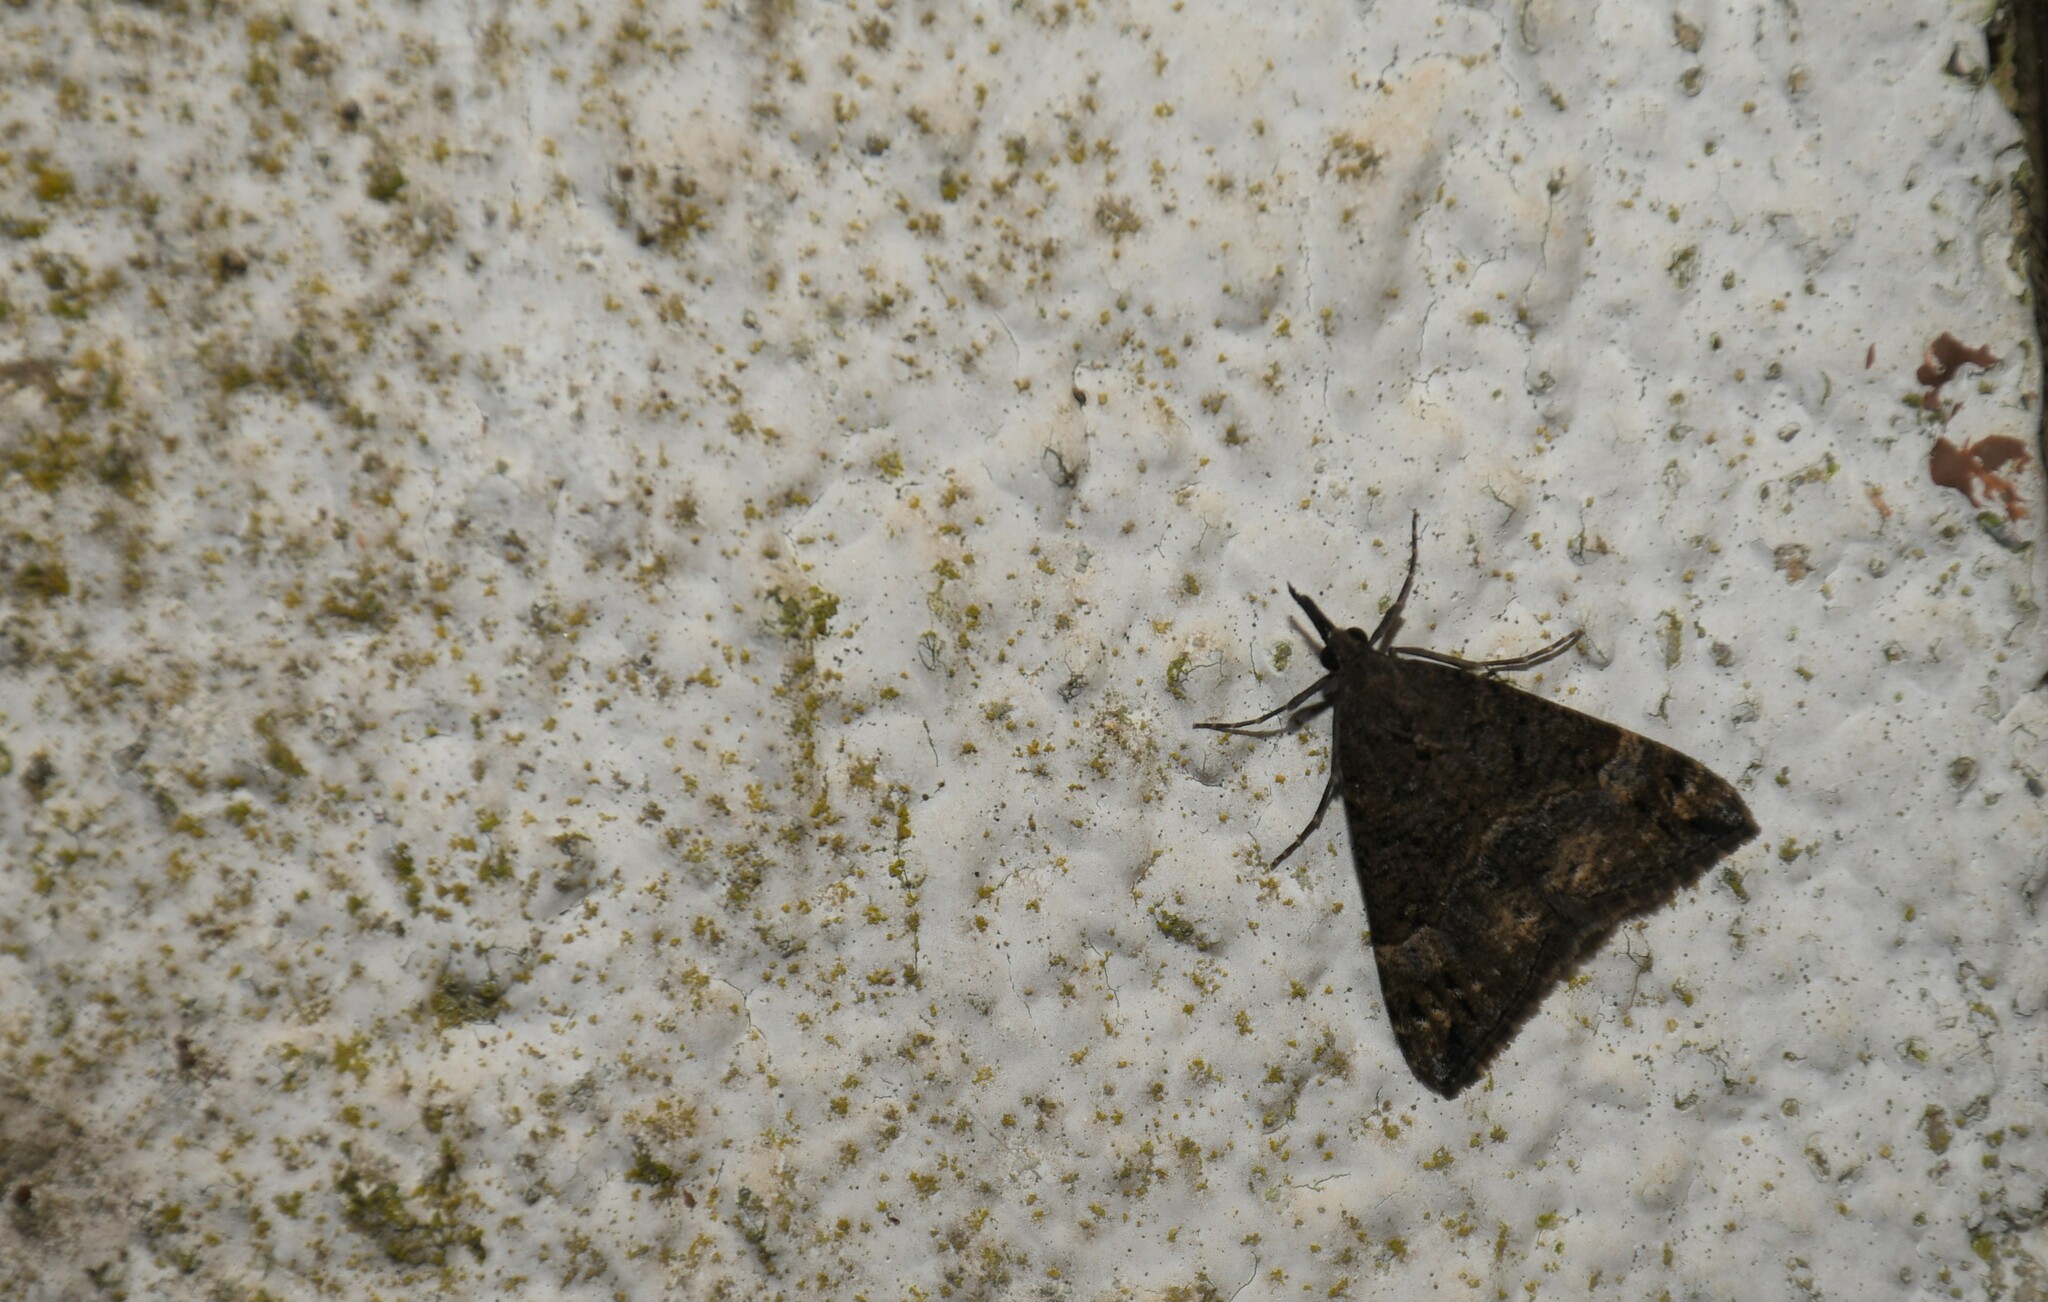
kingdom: Animalia
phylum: Arthropoda
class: Insecta
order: Lepidoptera
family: Erebidae
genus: Hypena
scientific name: Hypena obsitalis
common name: Bloxworth snout
